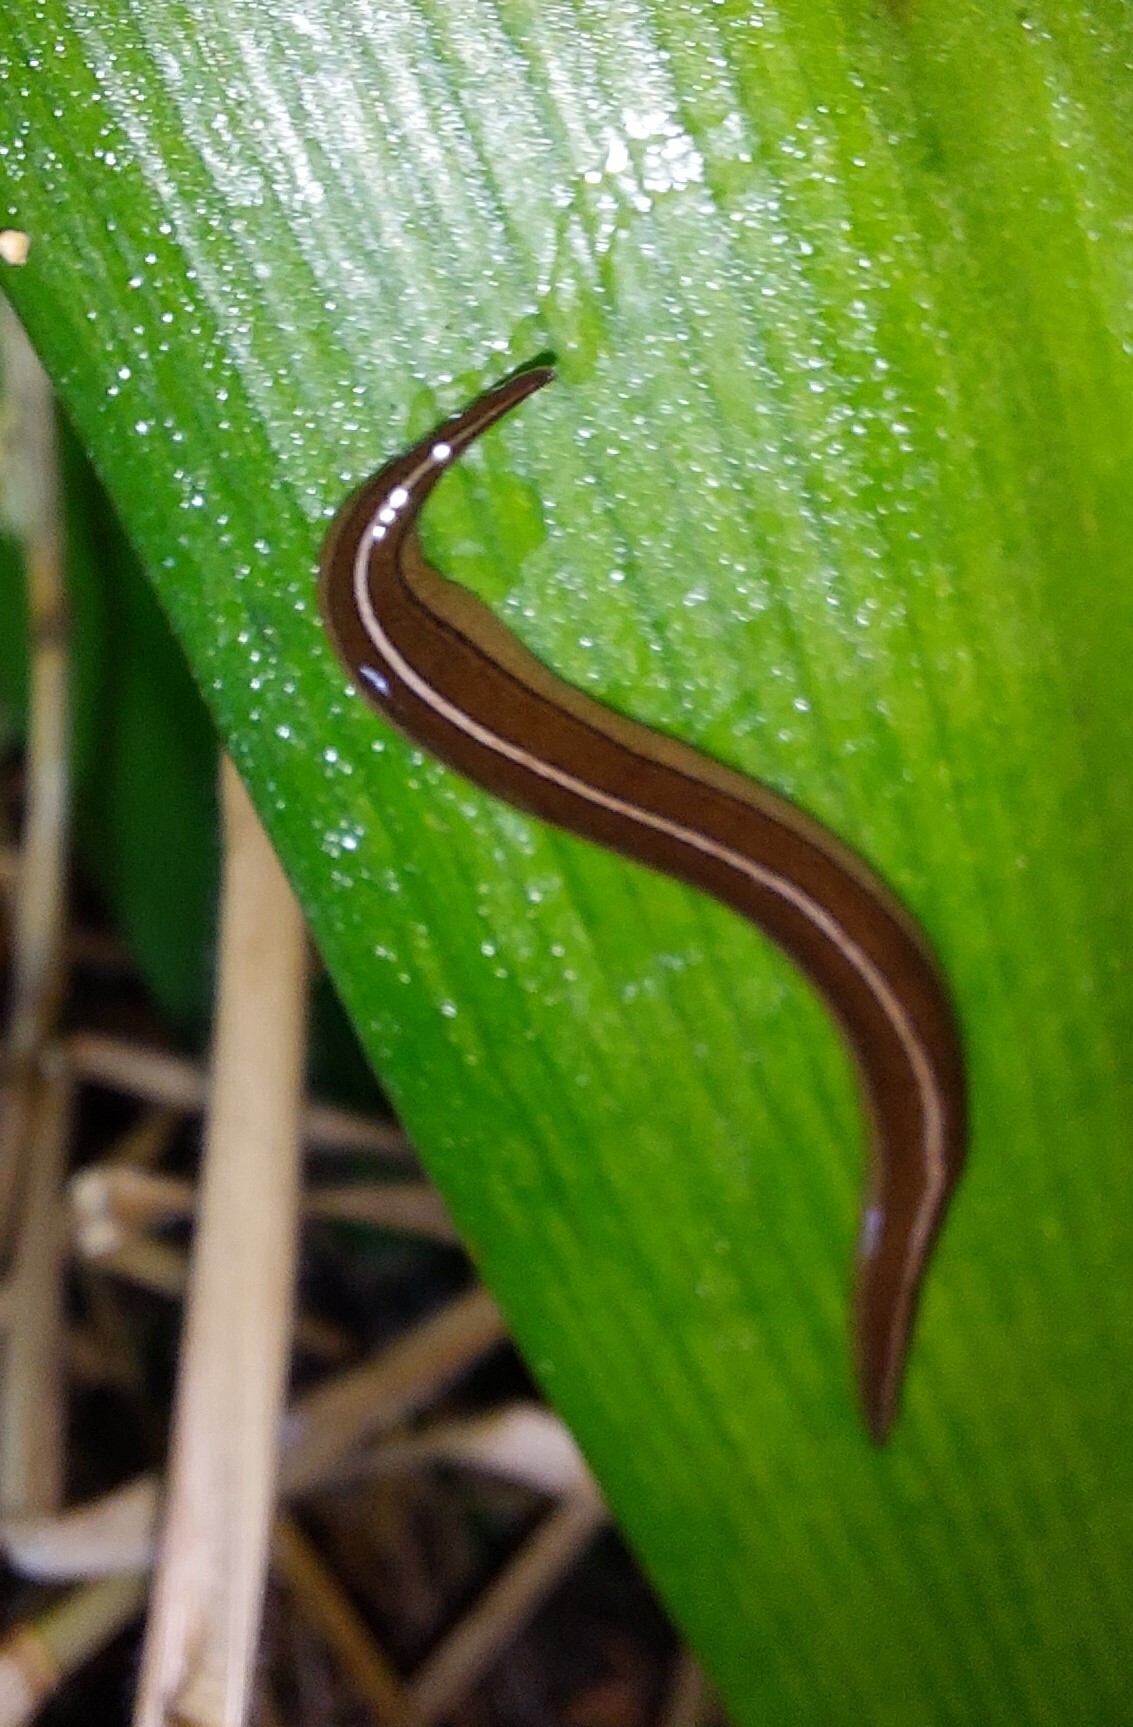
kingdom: Animalia
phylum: Platyhelminthes
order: Tricladida
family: Geoplanidae
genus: Newzealandia
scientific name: Newzealandia graffii
